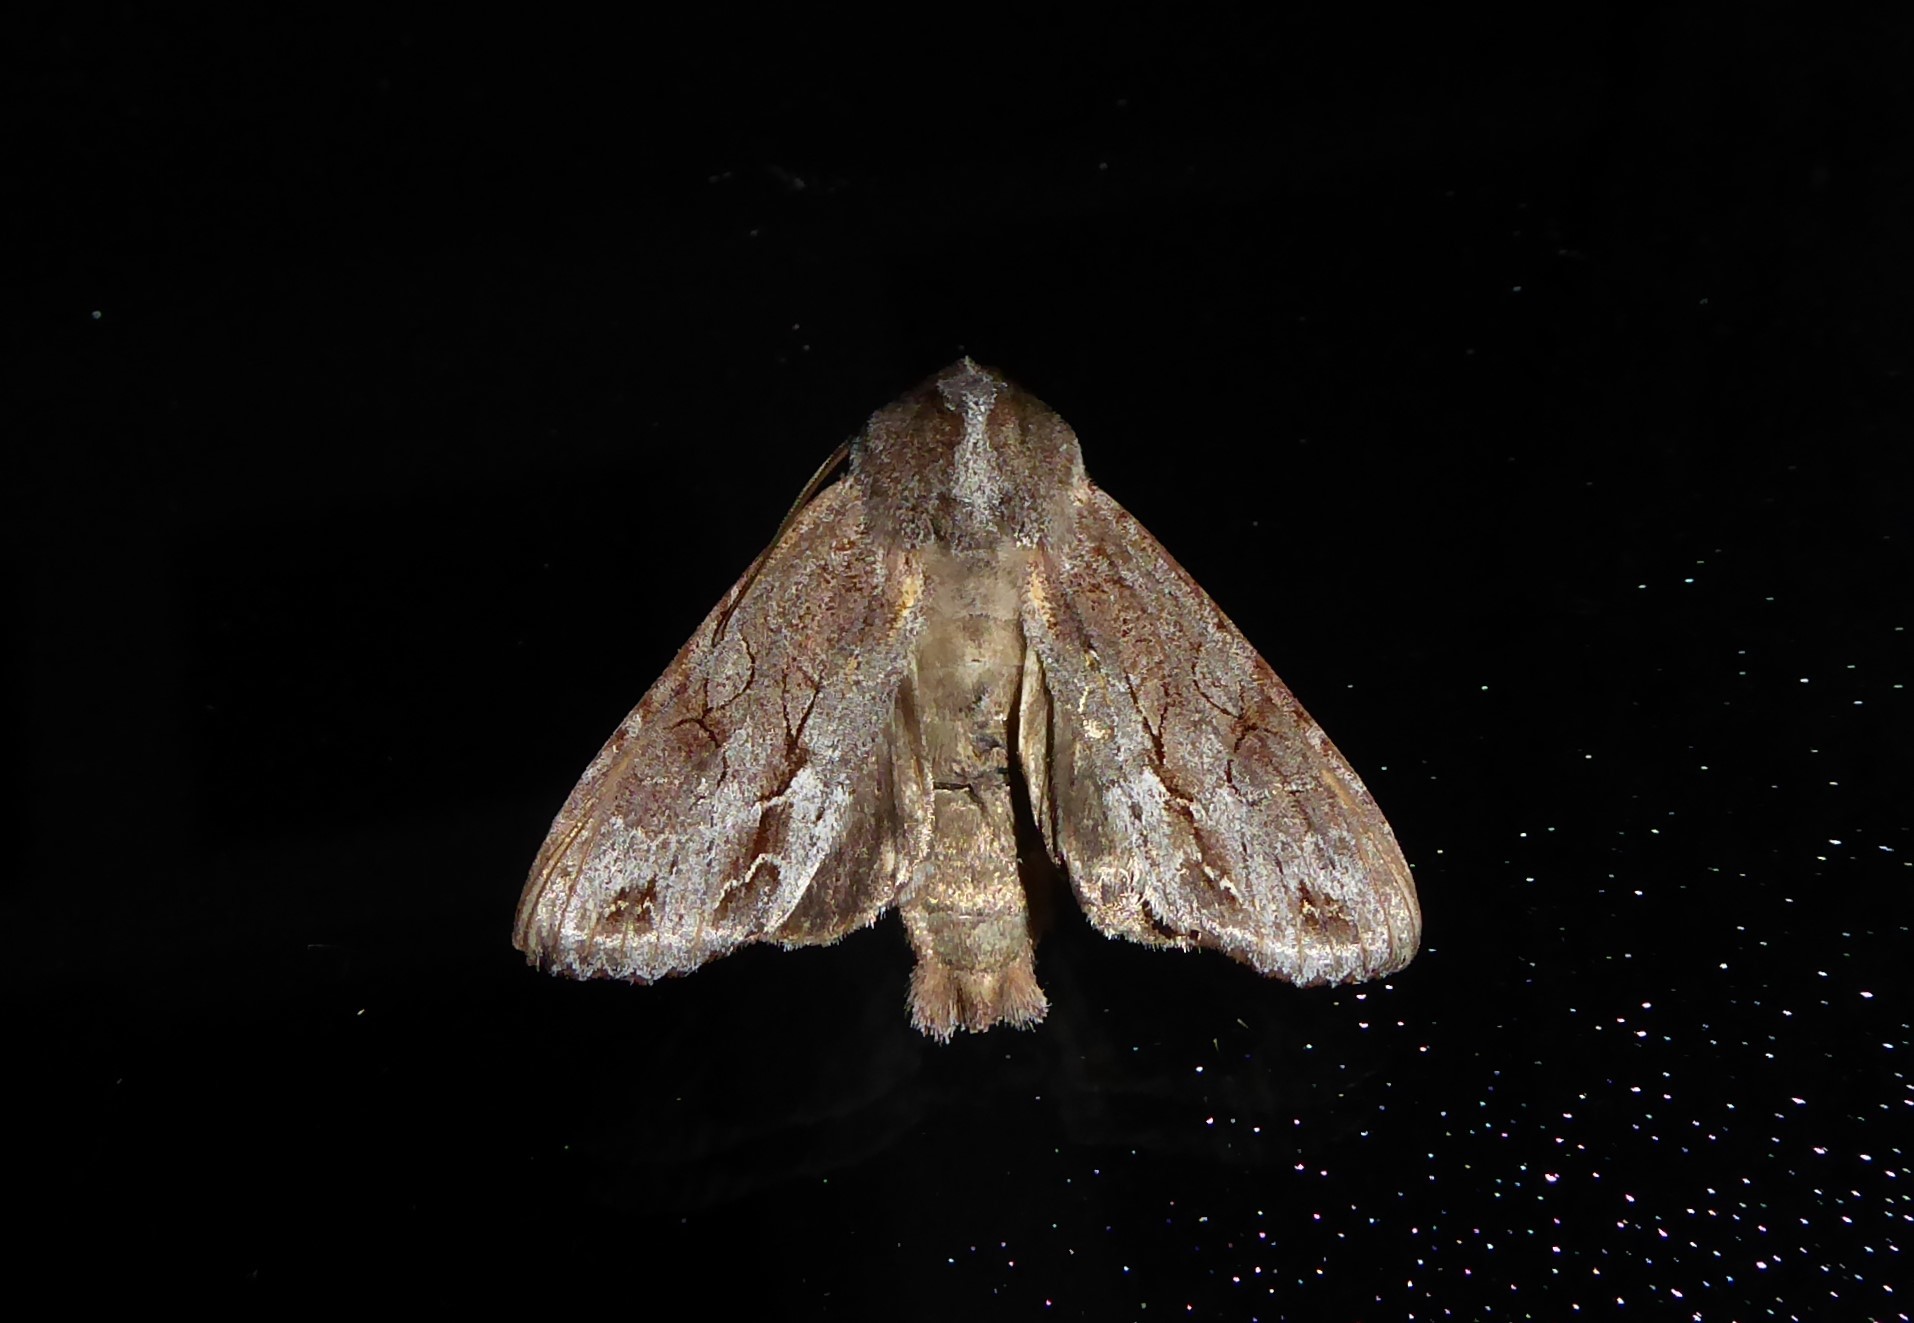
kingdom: Animalia
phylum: Arthropoda
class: Insecta
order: Lepidoptera
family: Noctuidae
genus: Ichneutica
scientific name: Ichneutica
